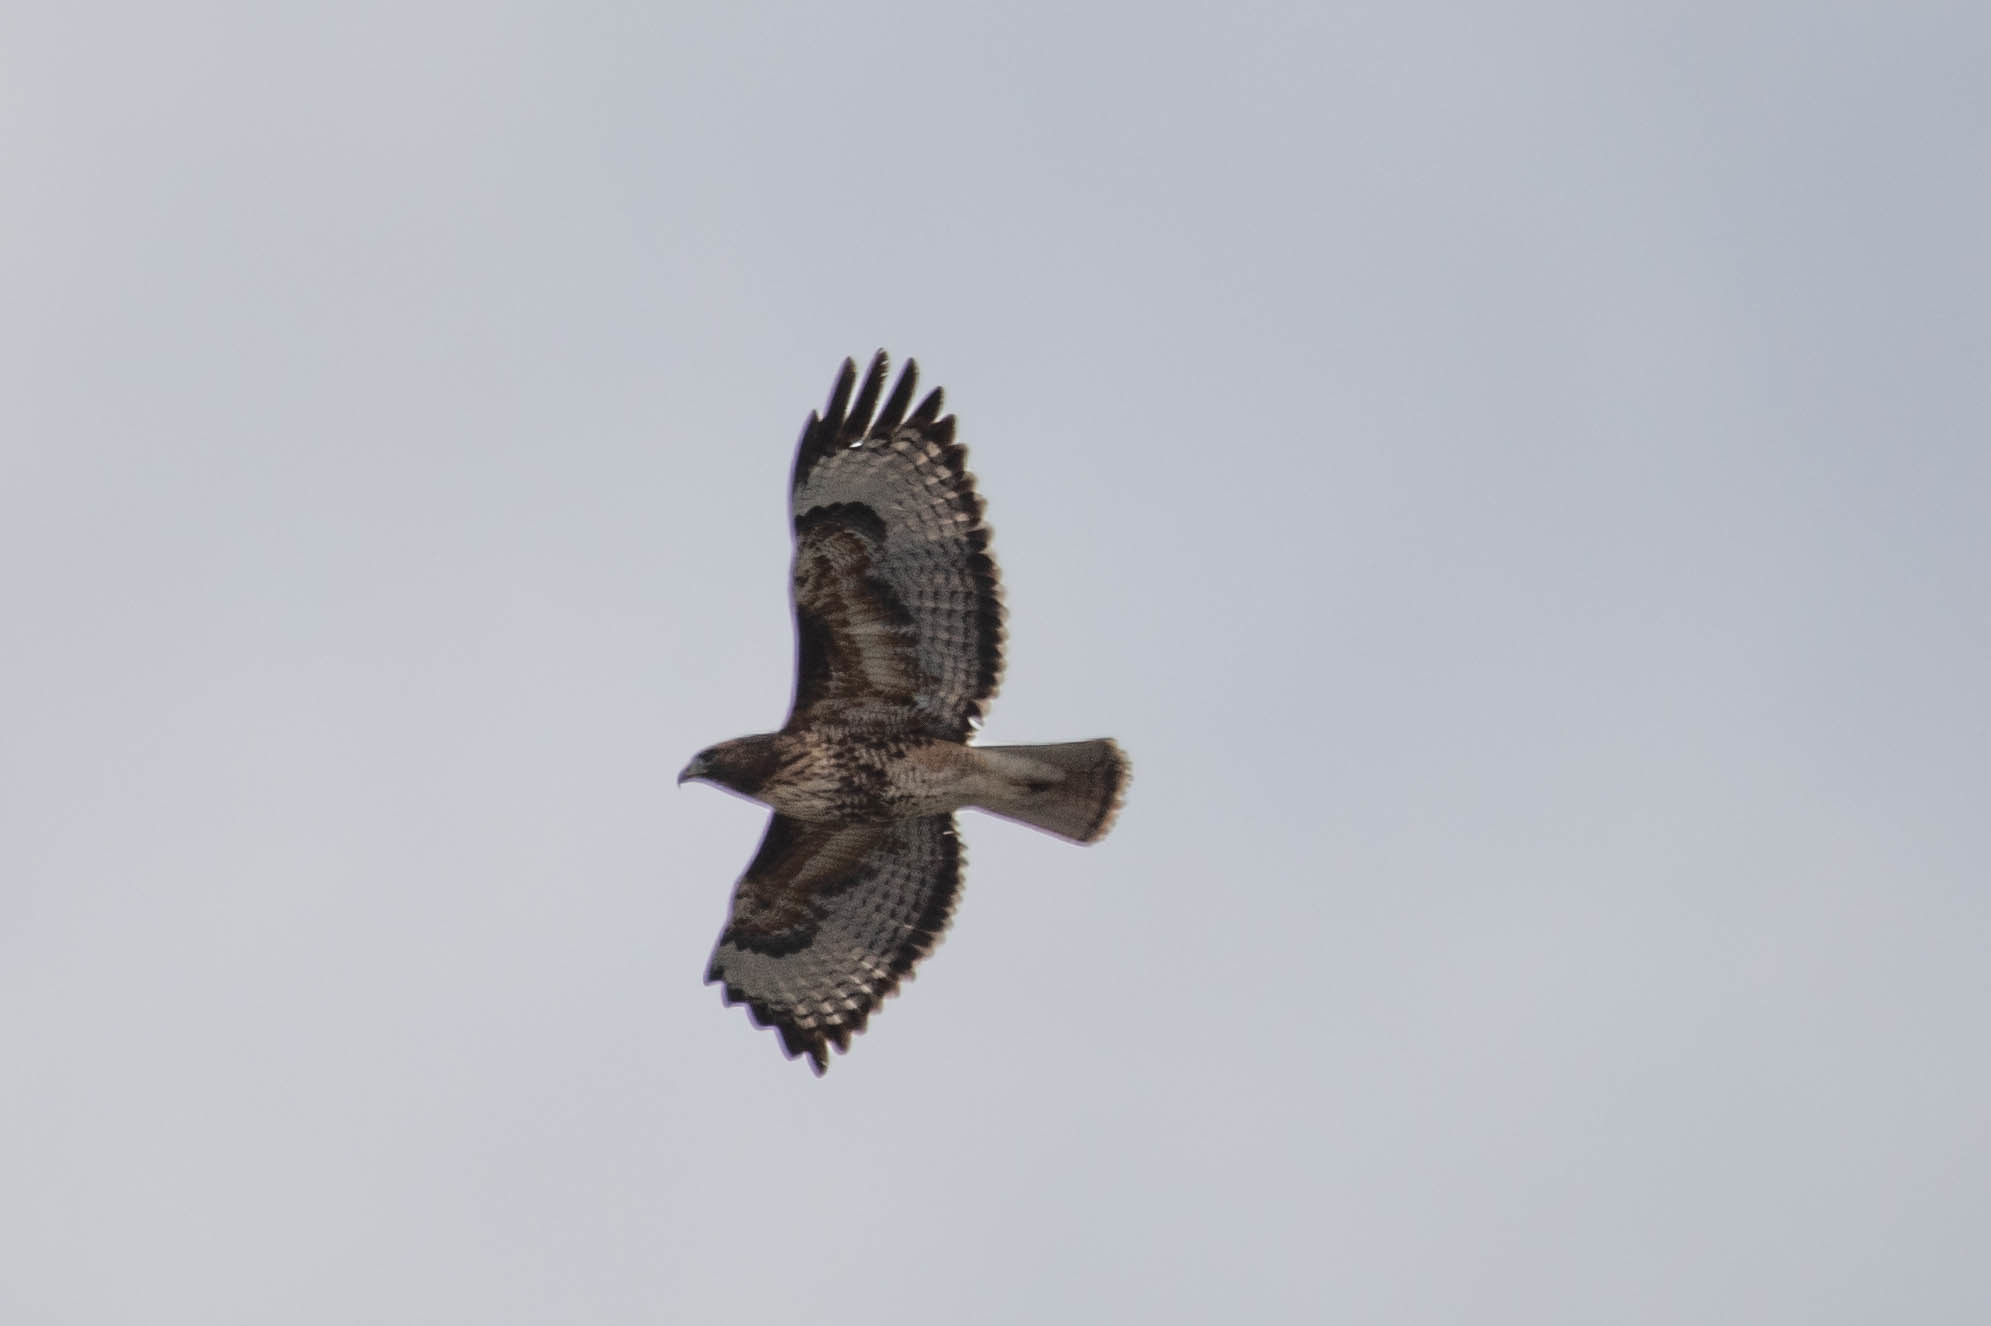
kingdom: Animalia
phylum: Chordata
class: Aves
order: Accipitriformes
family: Accipitridae
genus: Buteo
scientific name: Buteo jamaicensis
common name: Red-tailed hawk
